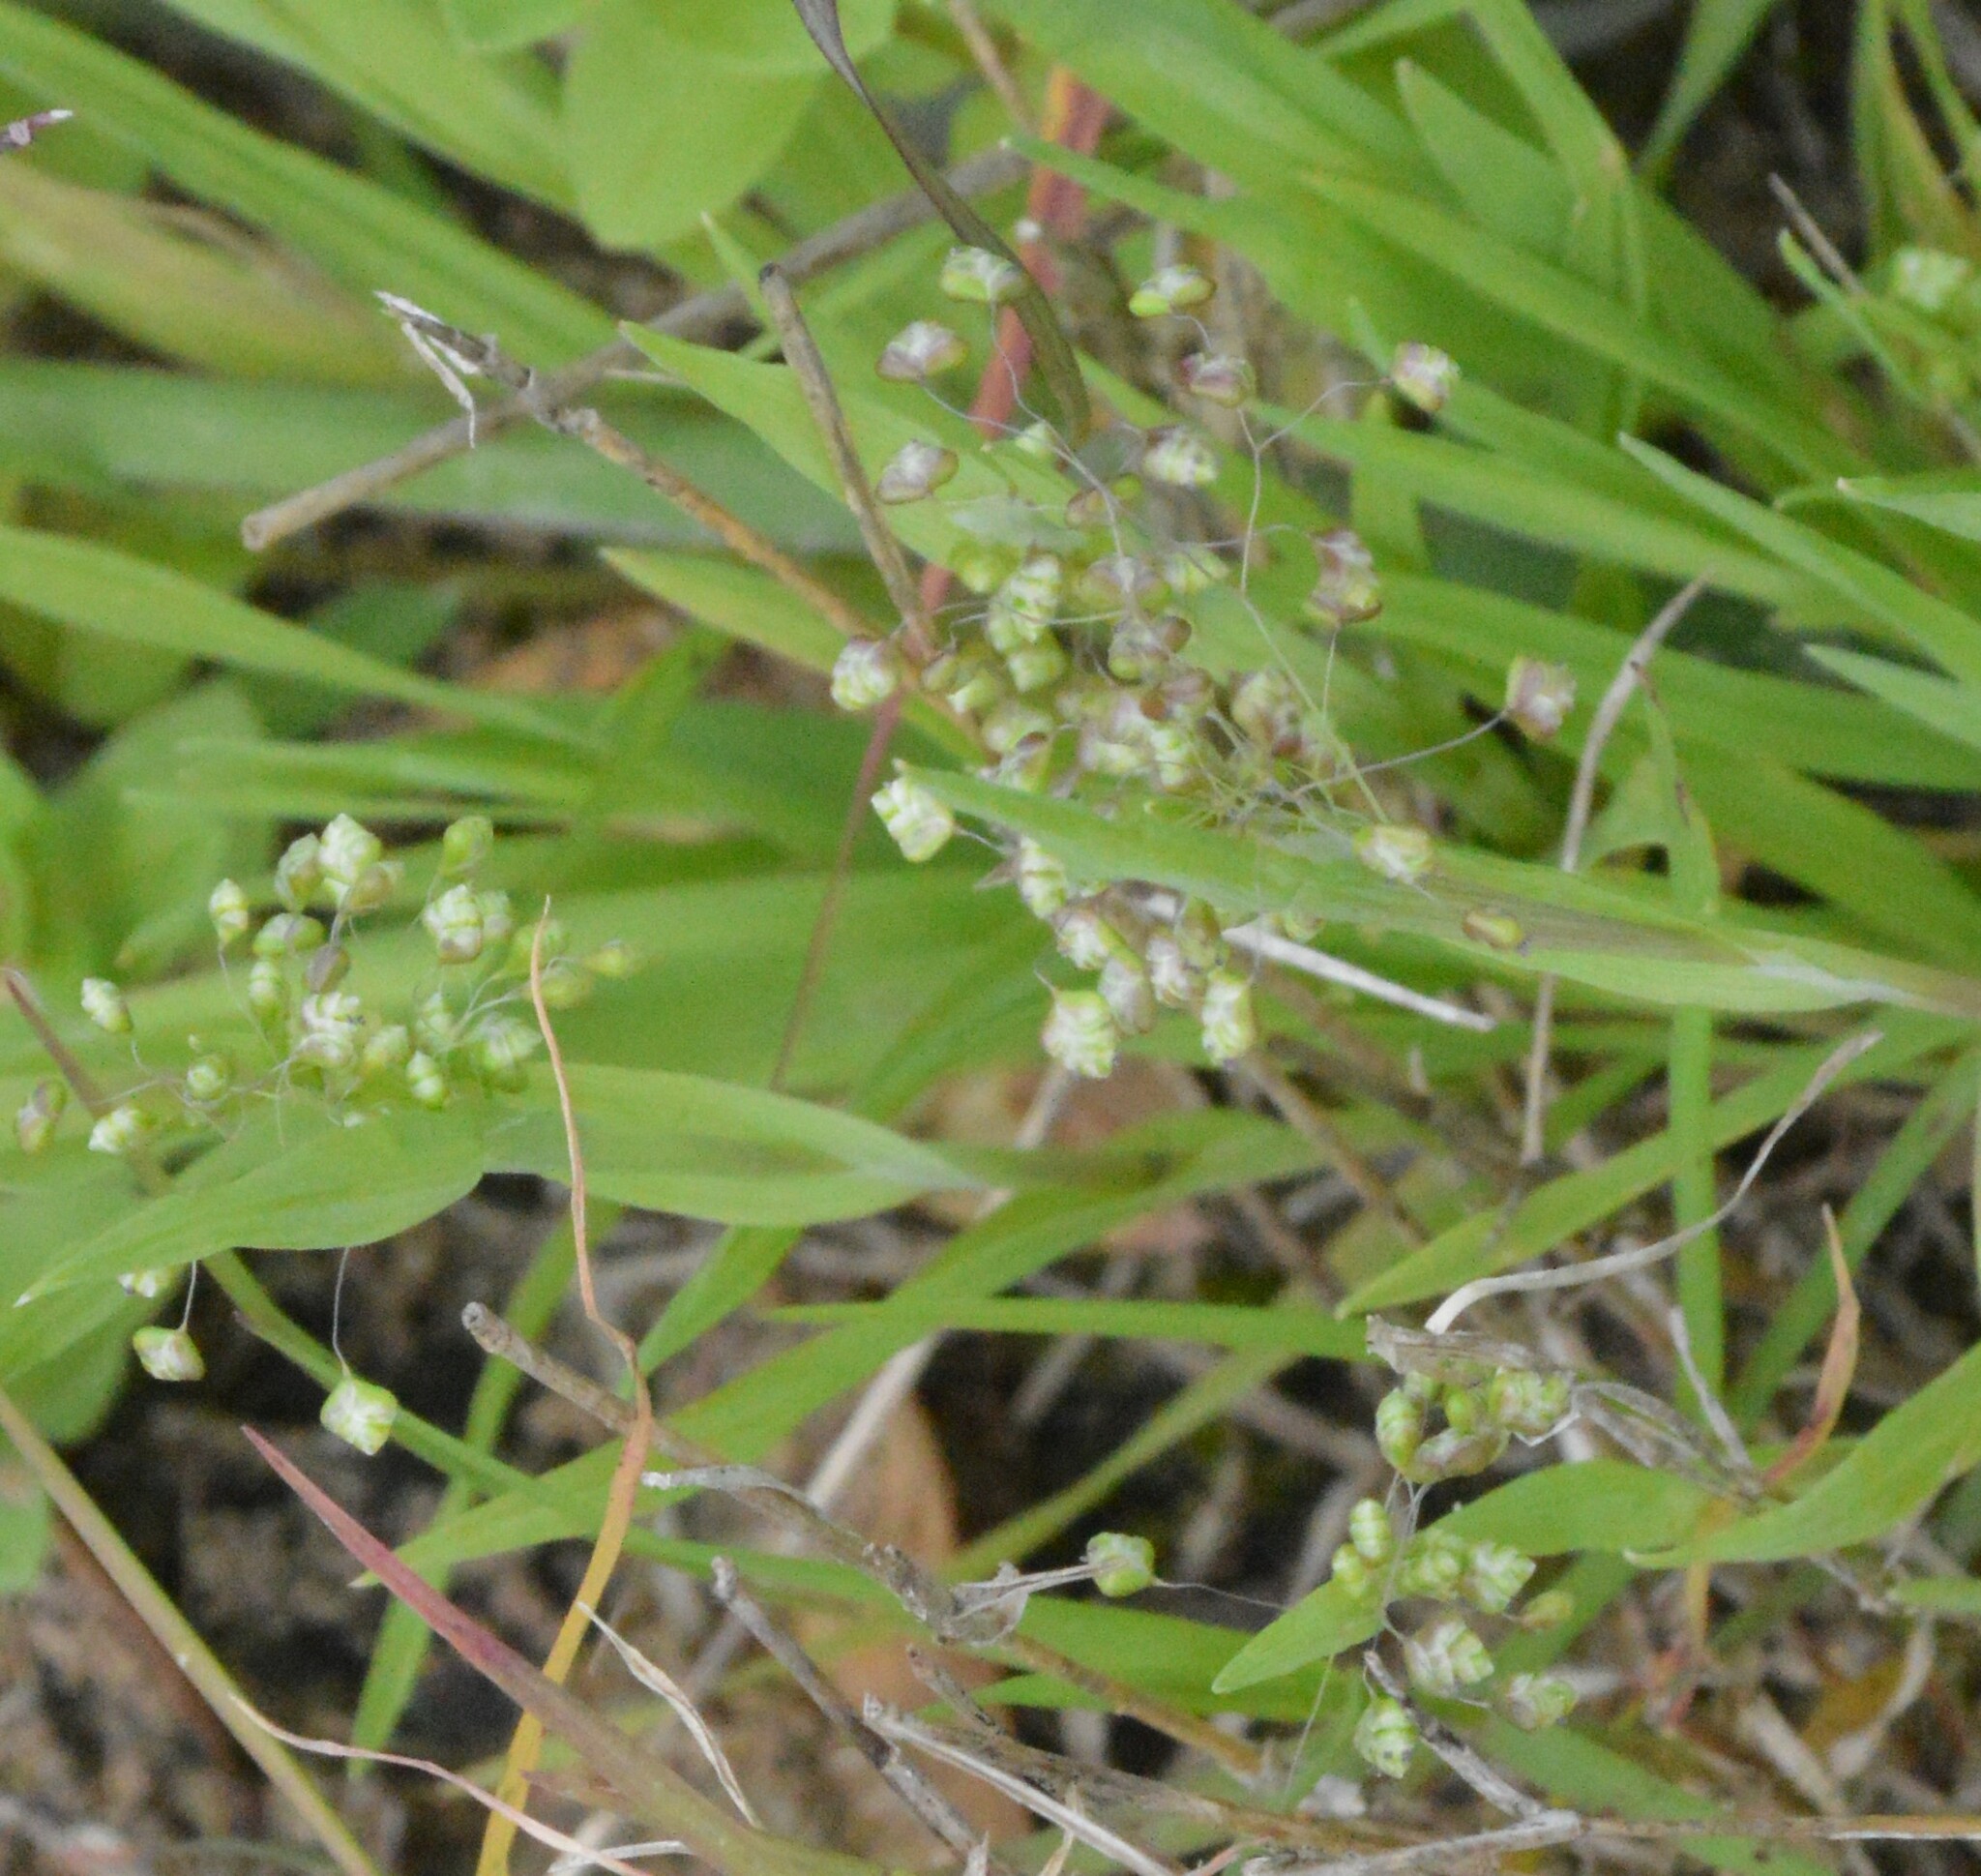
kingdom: Plantae
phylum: Tracheophyta
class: Liliopsida
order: Poales
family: Poaceae
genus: Briza
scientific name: Briza minor
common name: Lesser quaking-grass
